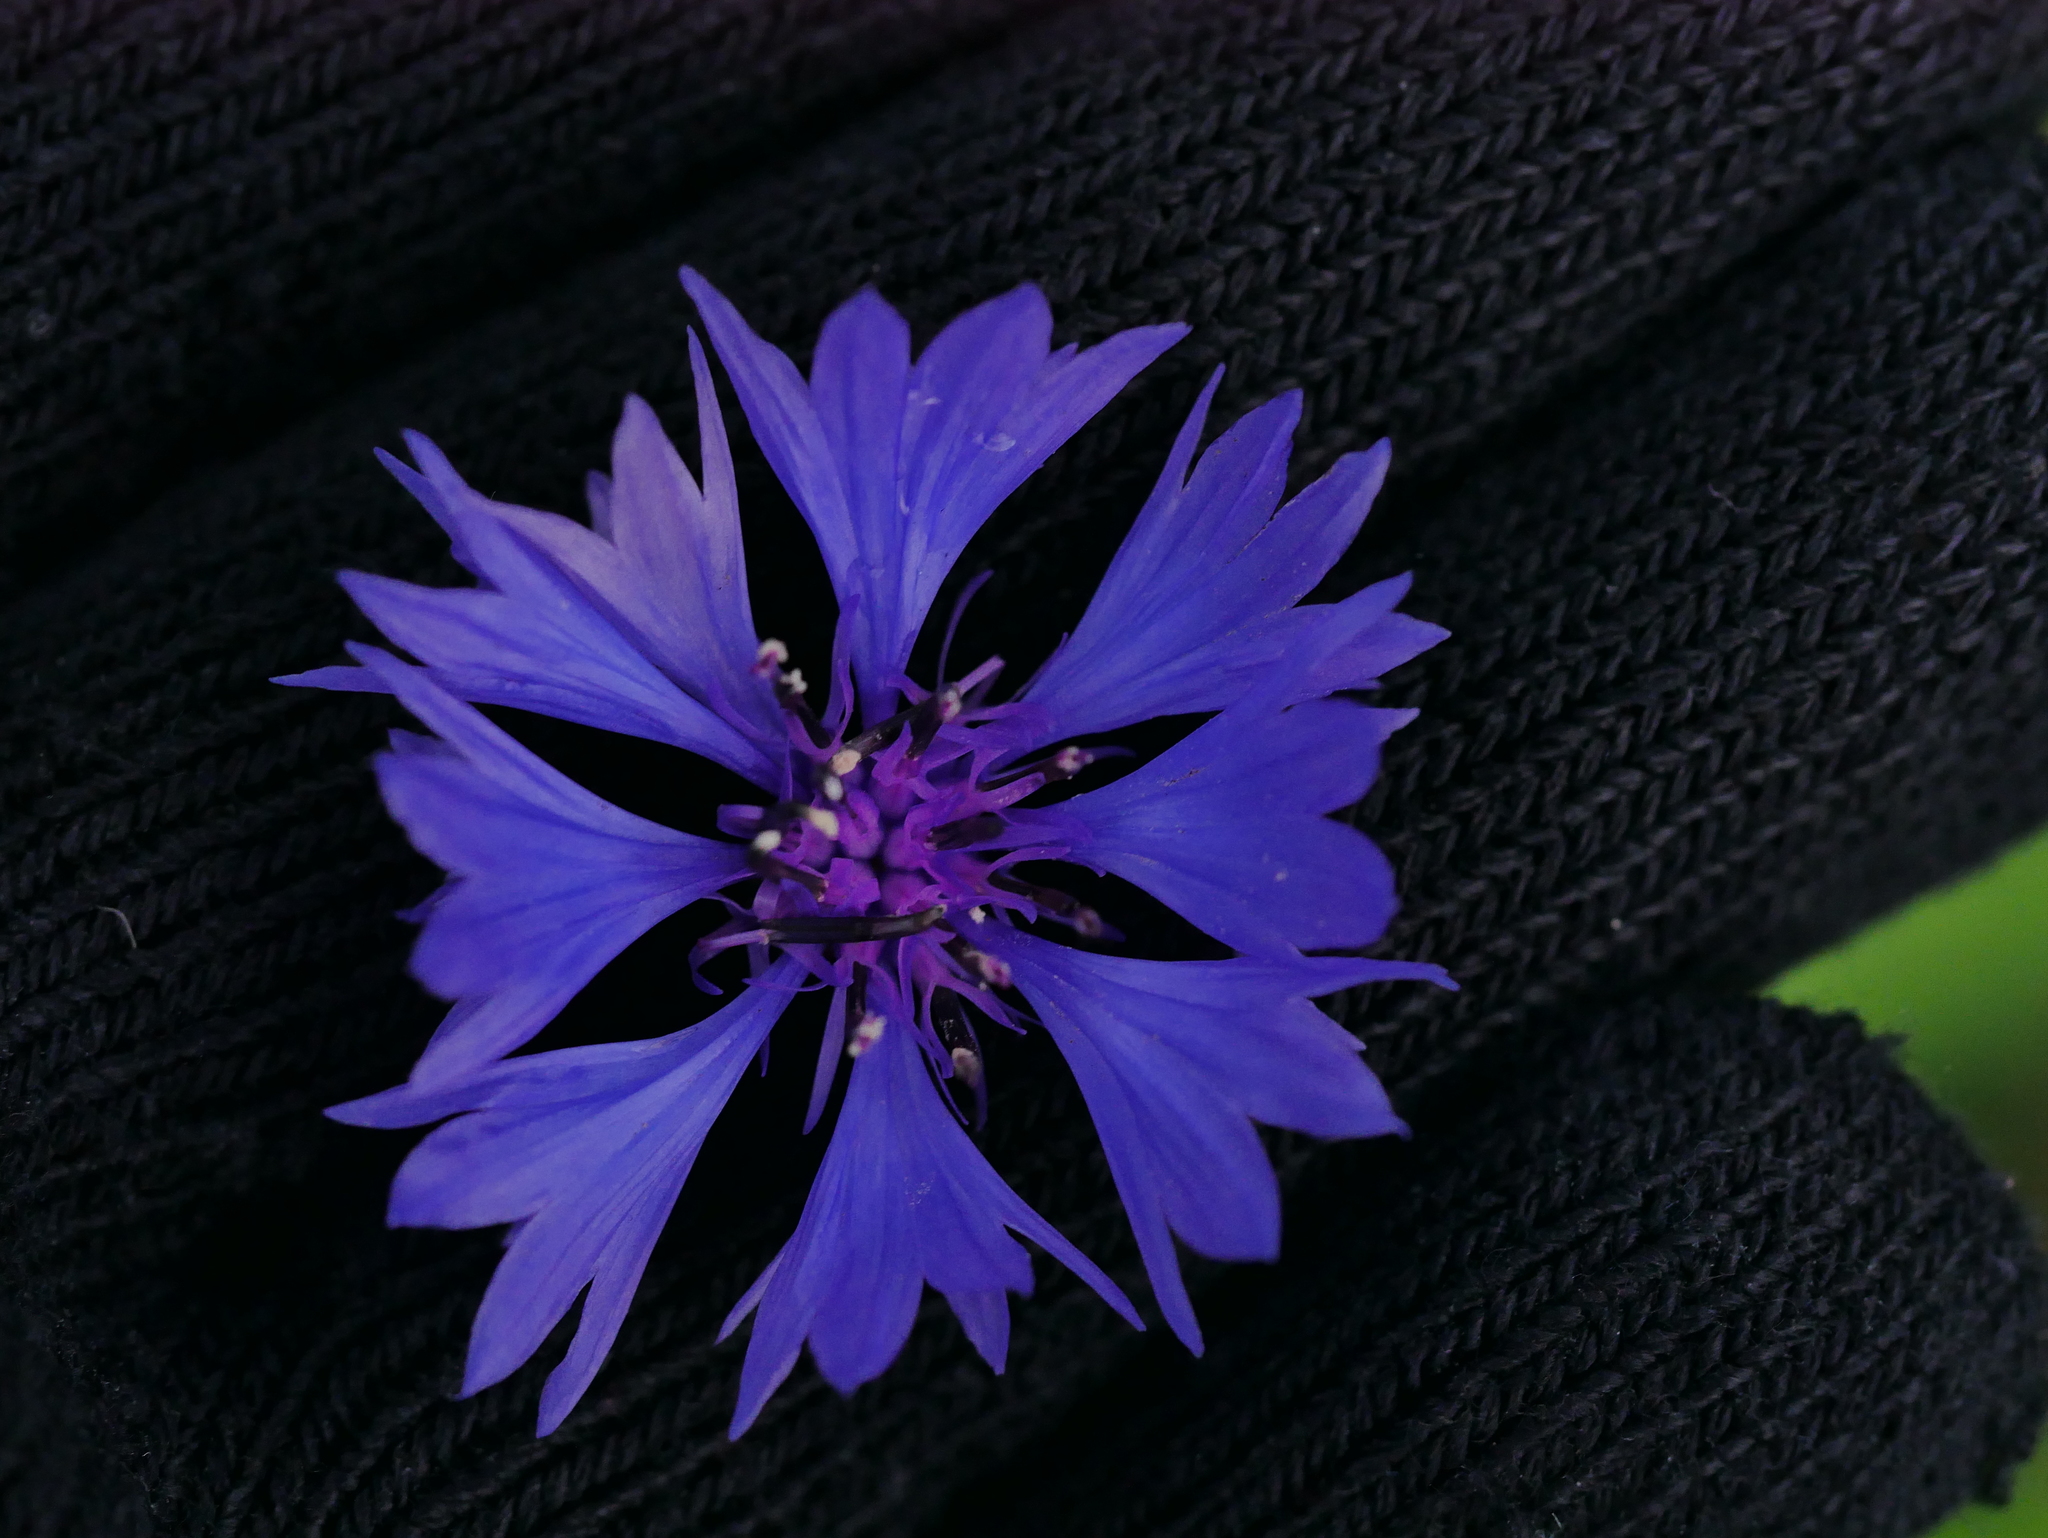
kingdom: Plantae
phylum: Tracheophyta
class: Magnoliopsida
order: Asterales
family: Asteraceae
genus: Centaurea
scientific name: Centaurea cyanus
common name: Cornflower
